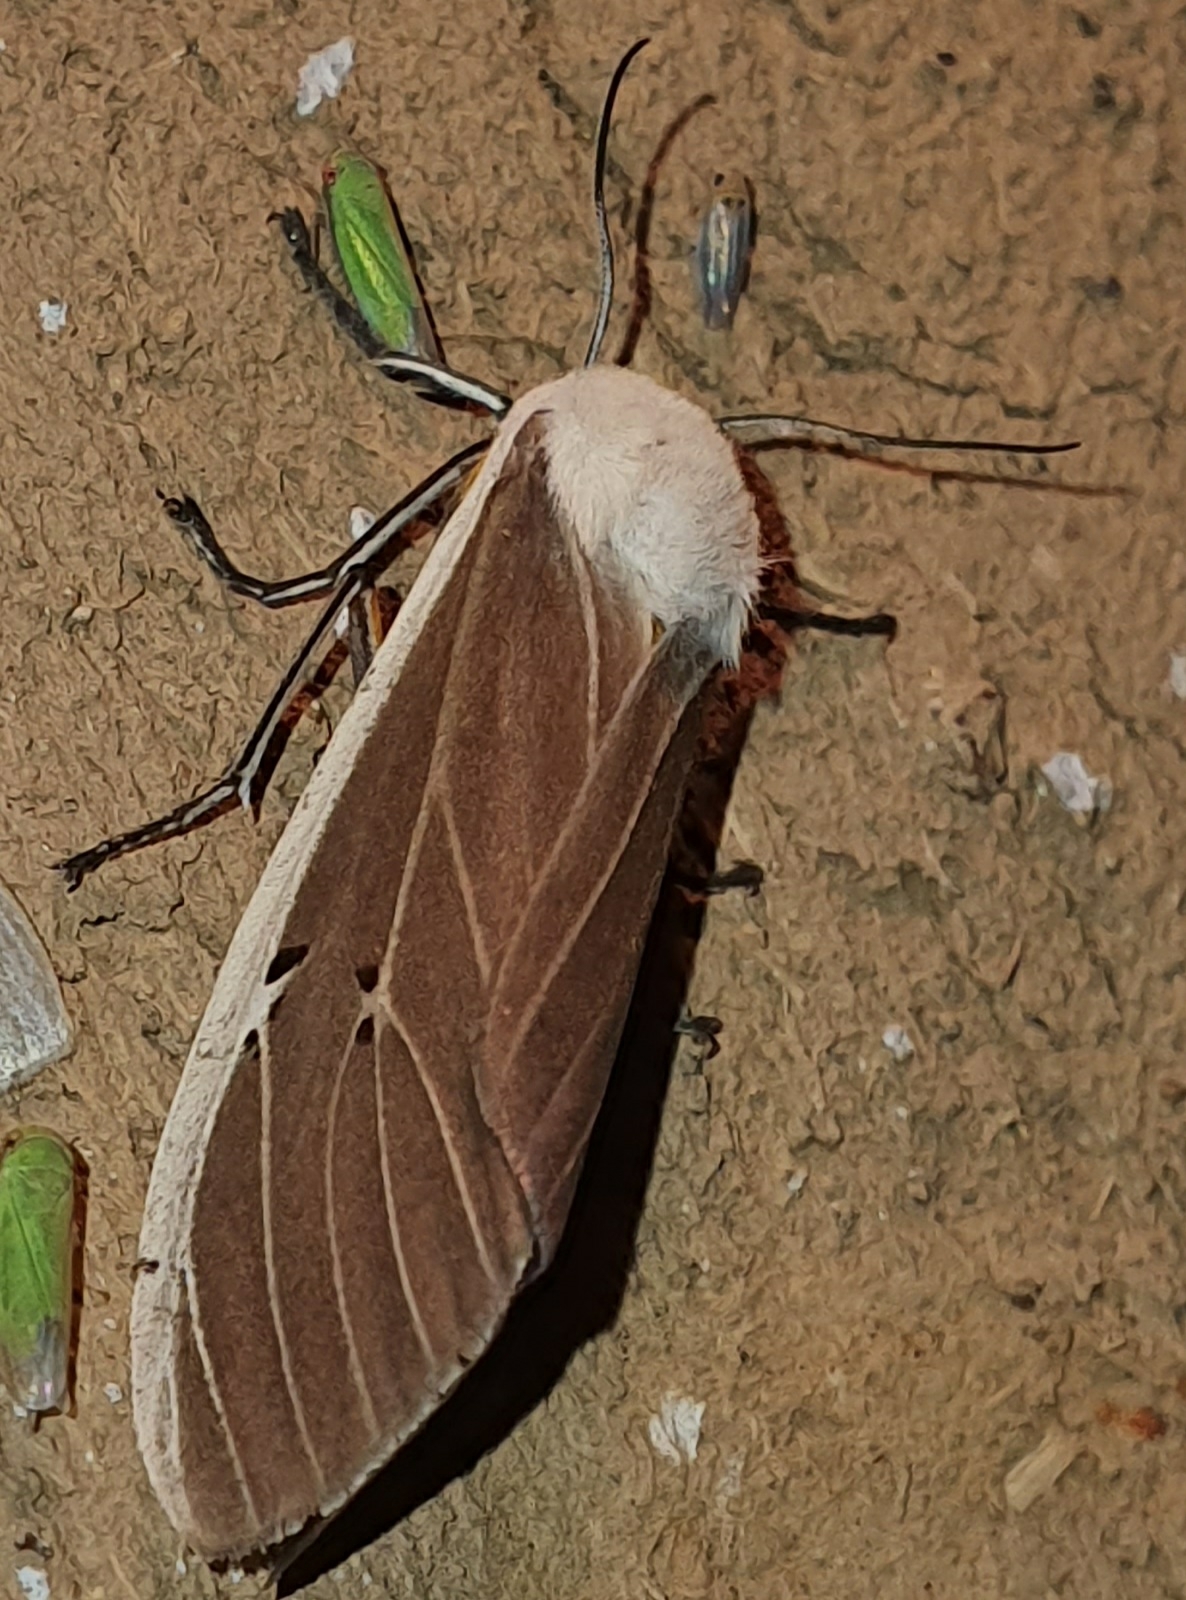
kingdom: Animalia
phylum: Arthropoda
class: Insecta
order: Lepidoptera
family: Erebidae
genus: Creatonotos
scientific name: Creatonotos transiens
